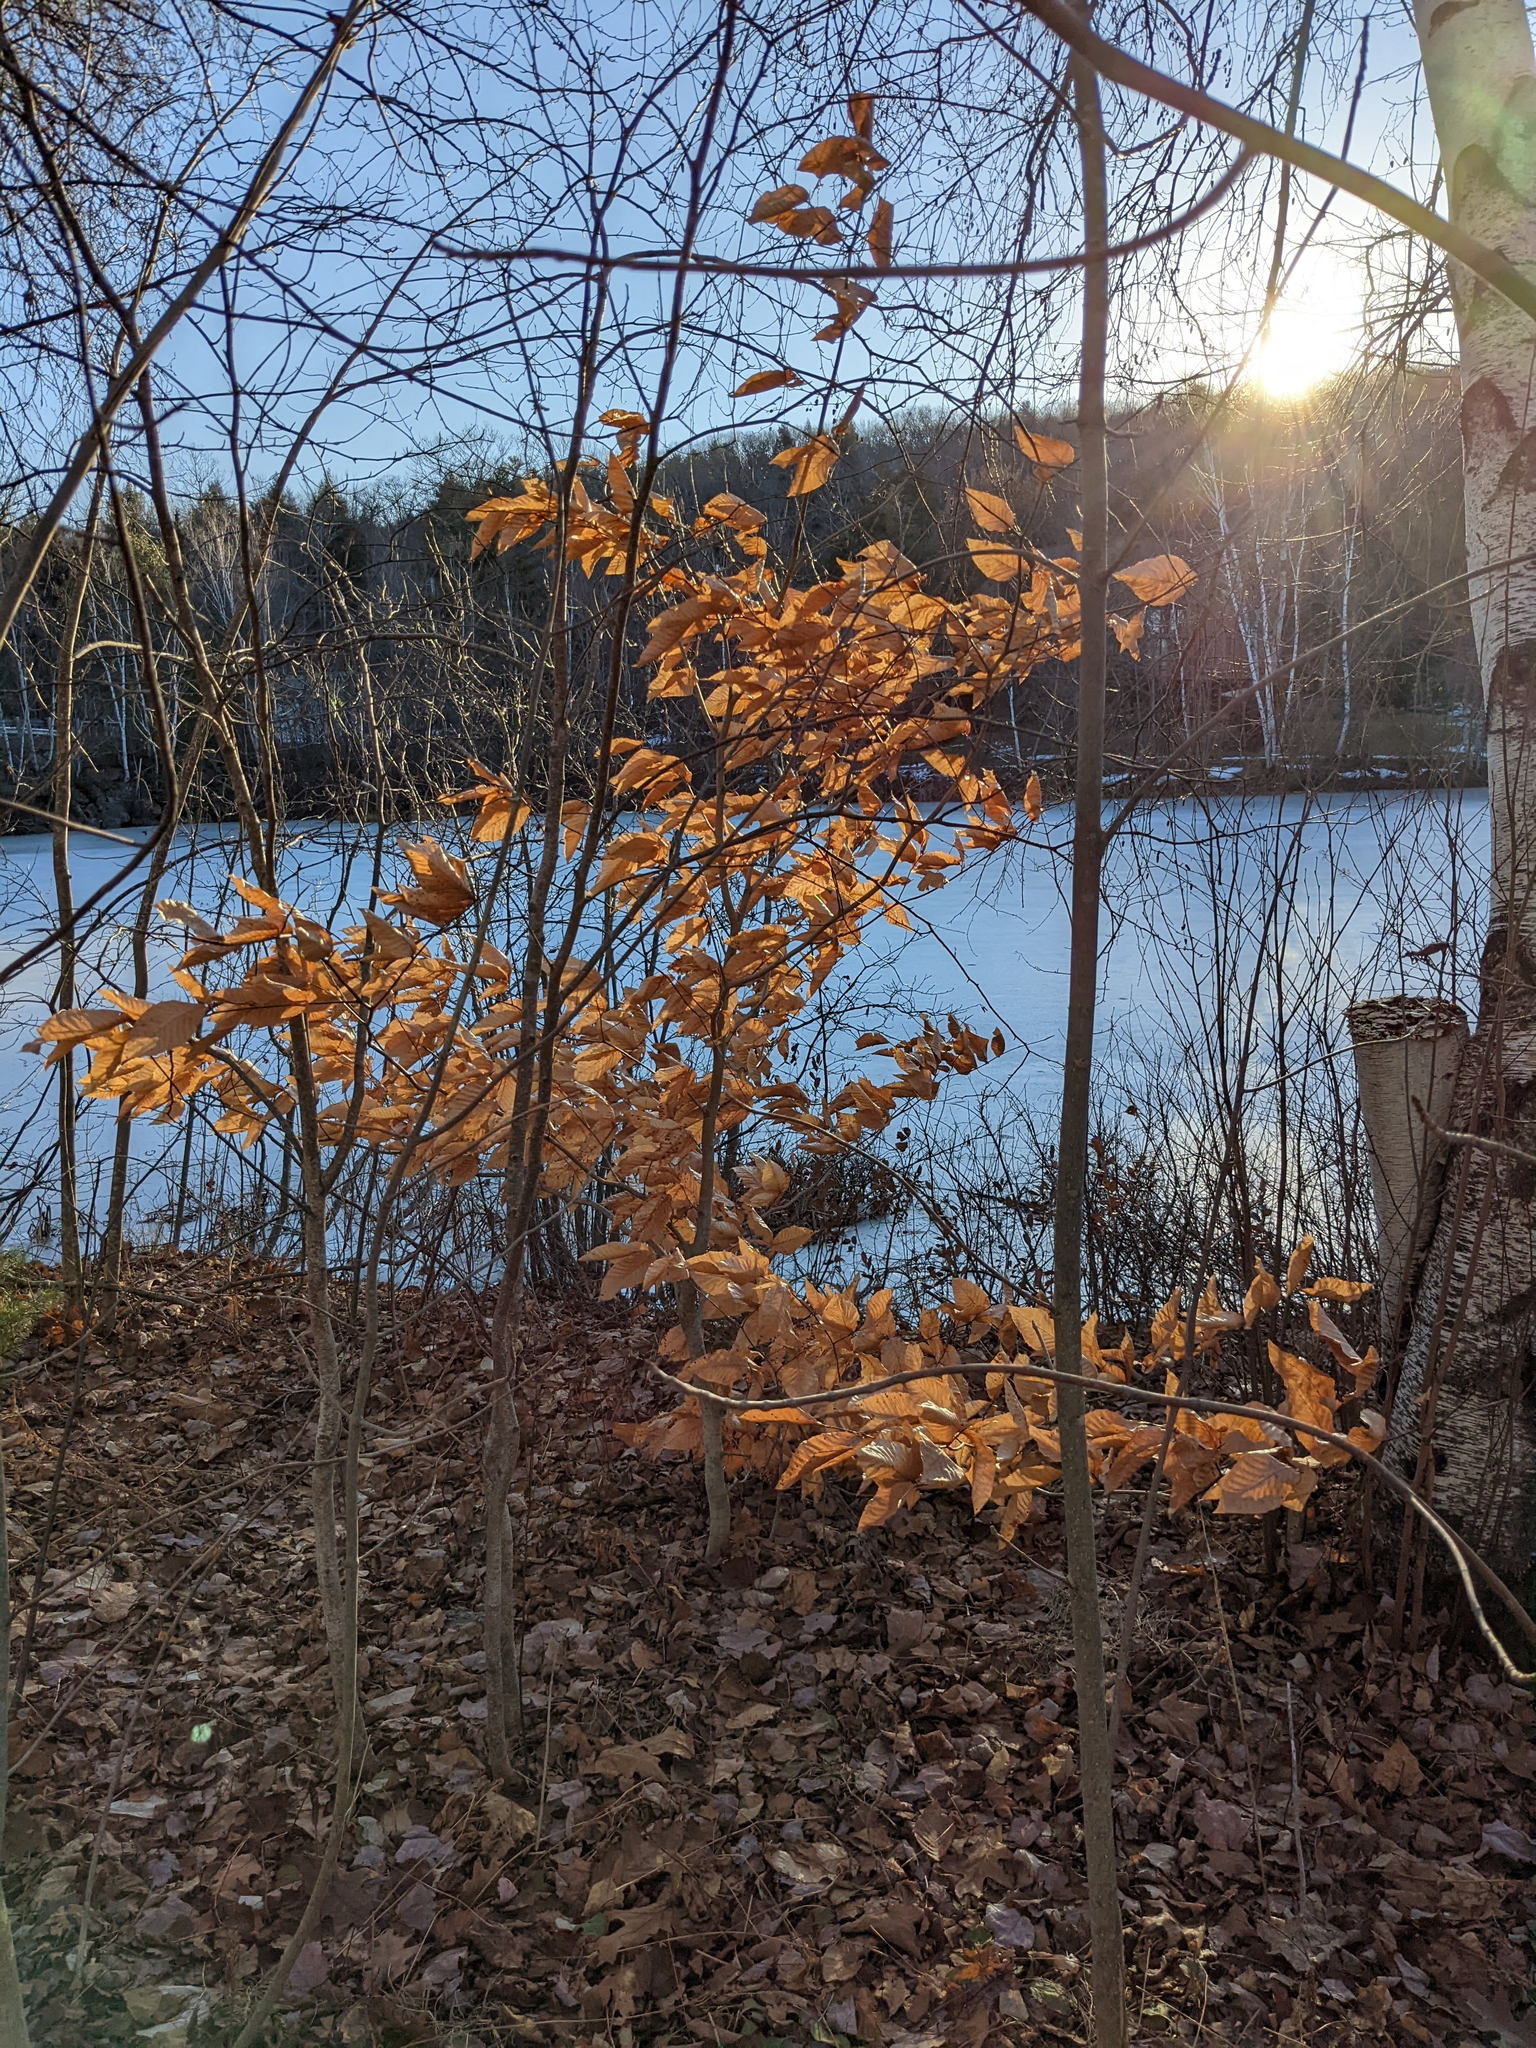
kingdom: Plantae
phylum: Tracheophyta
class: Magnoliopsida
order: Fagales
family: Fagaceae
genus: Fagus
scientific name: Fagus grandifolia
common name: American beech
